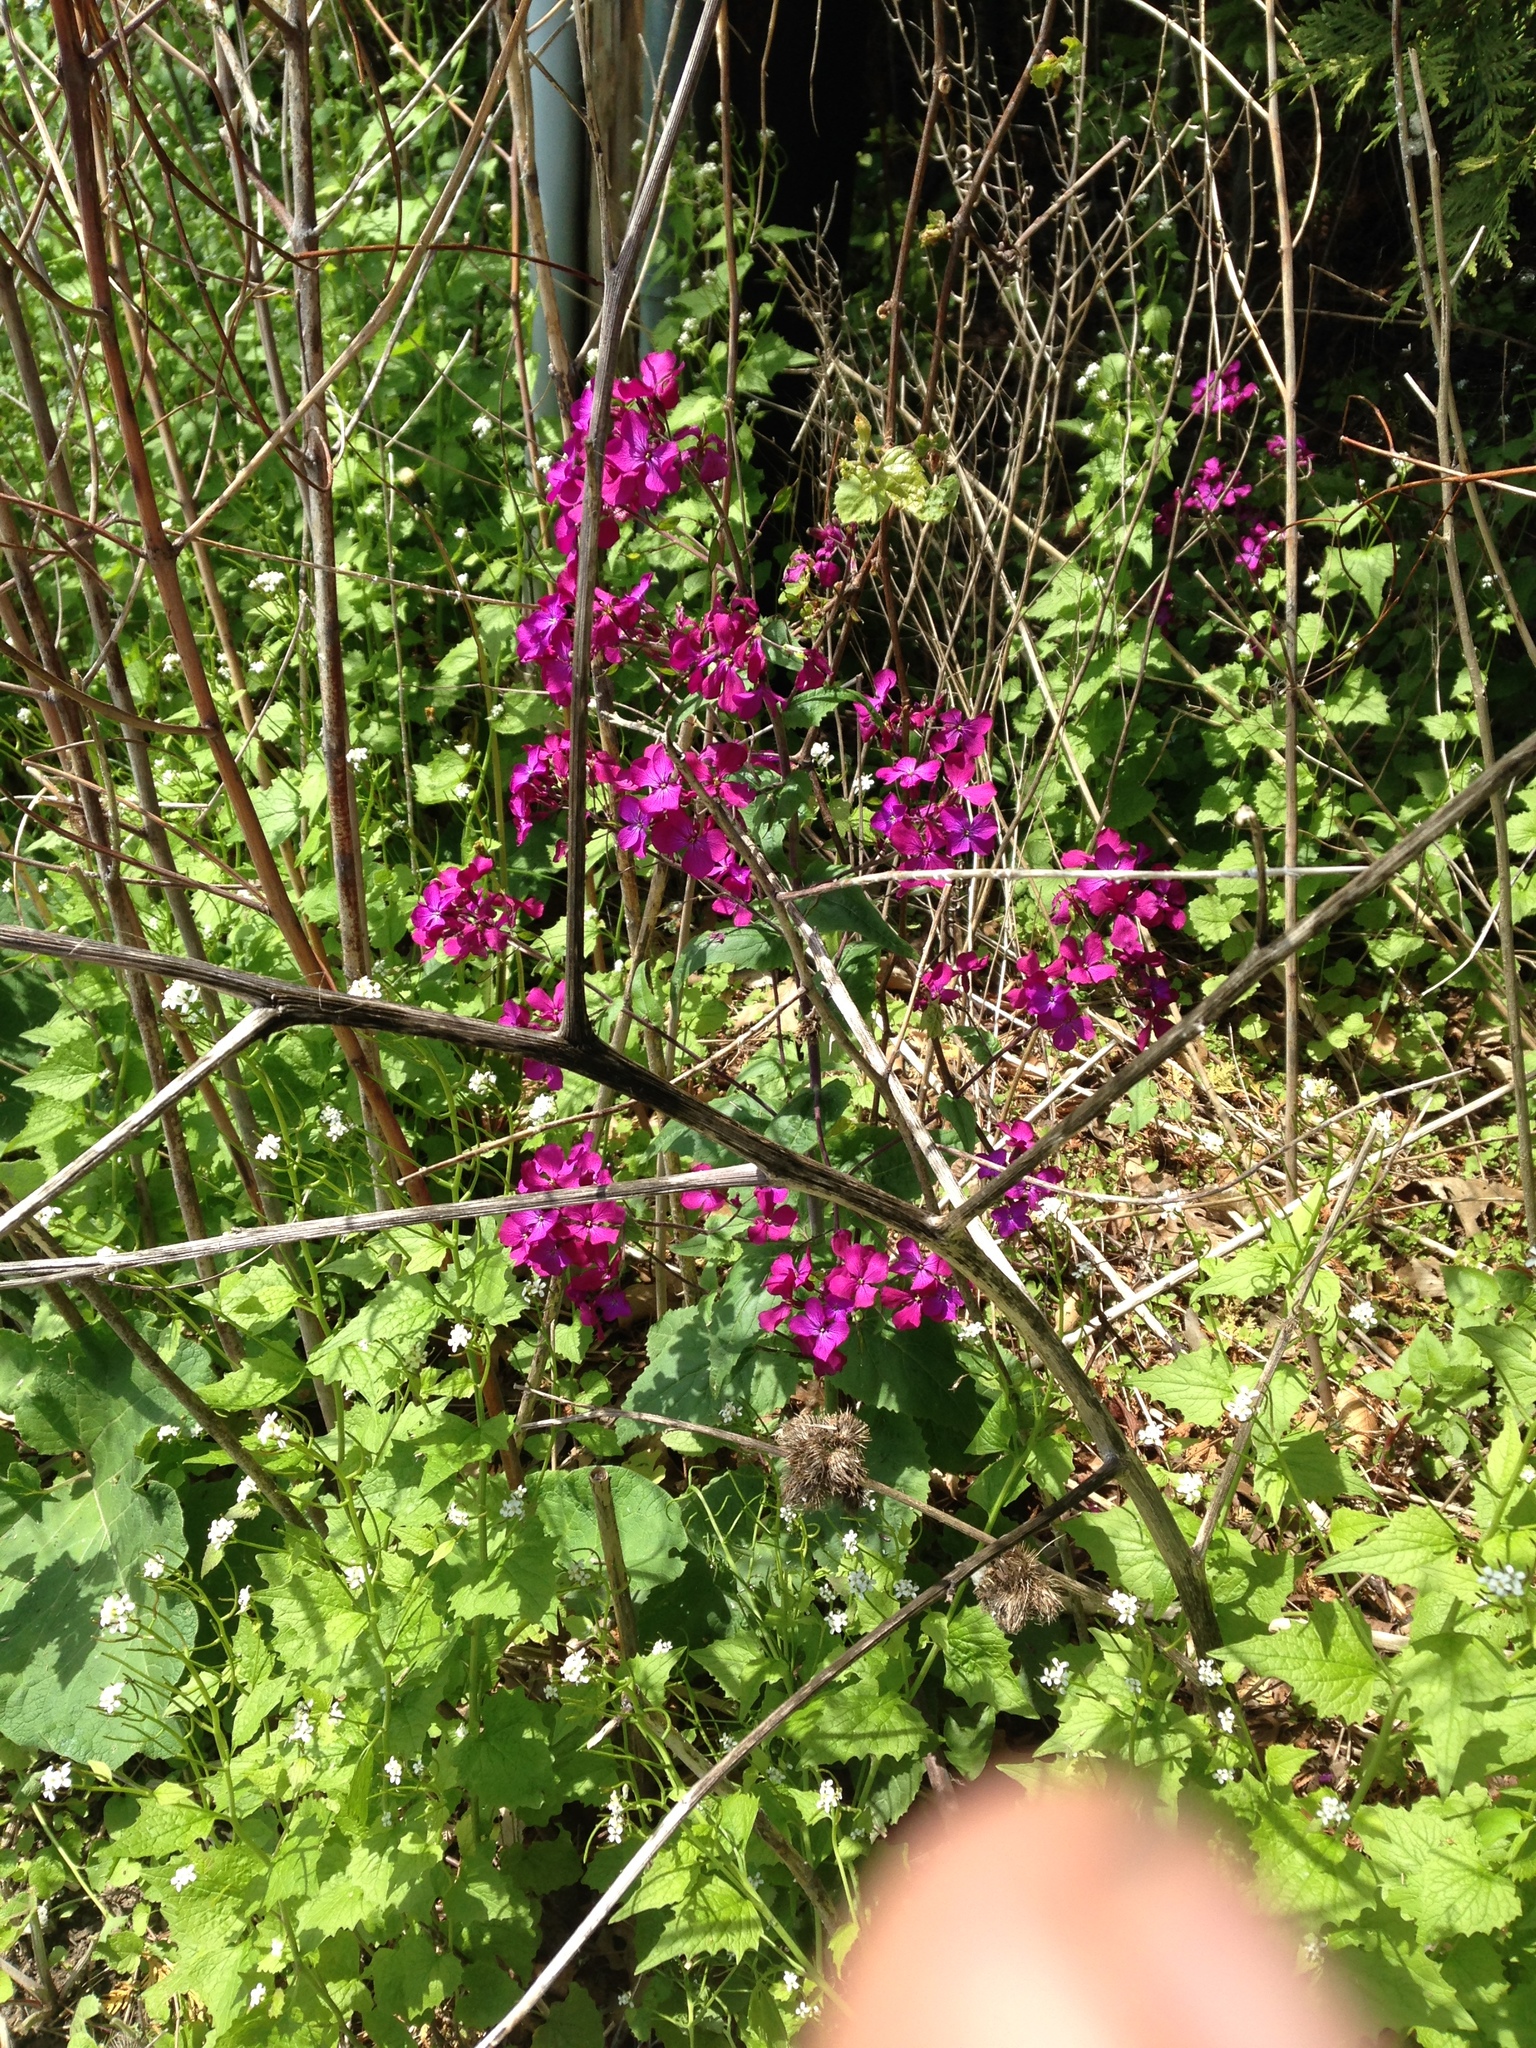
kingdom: Plantae
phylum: Tracheophyta
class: Magnoliopsida
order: Brassicales
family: Brassicaceae
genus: Lunaria
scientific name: Lunaria annua
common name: Honesty
